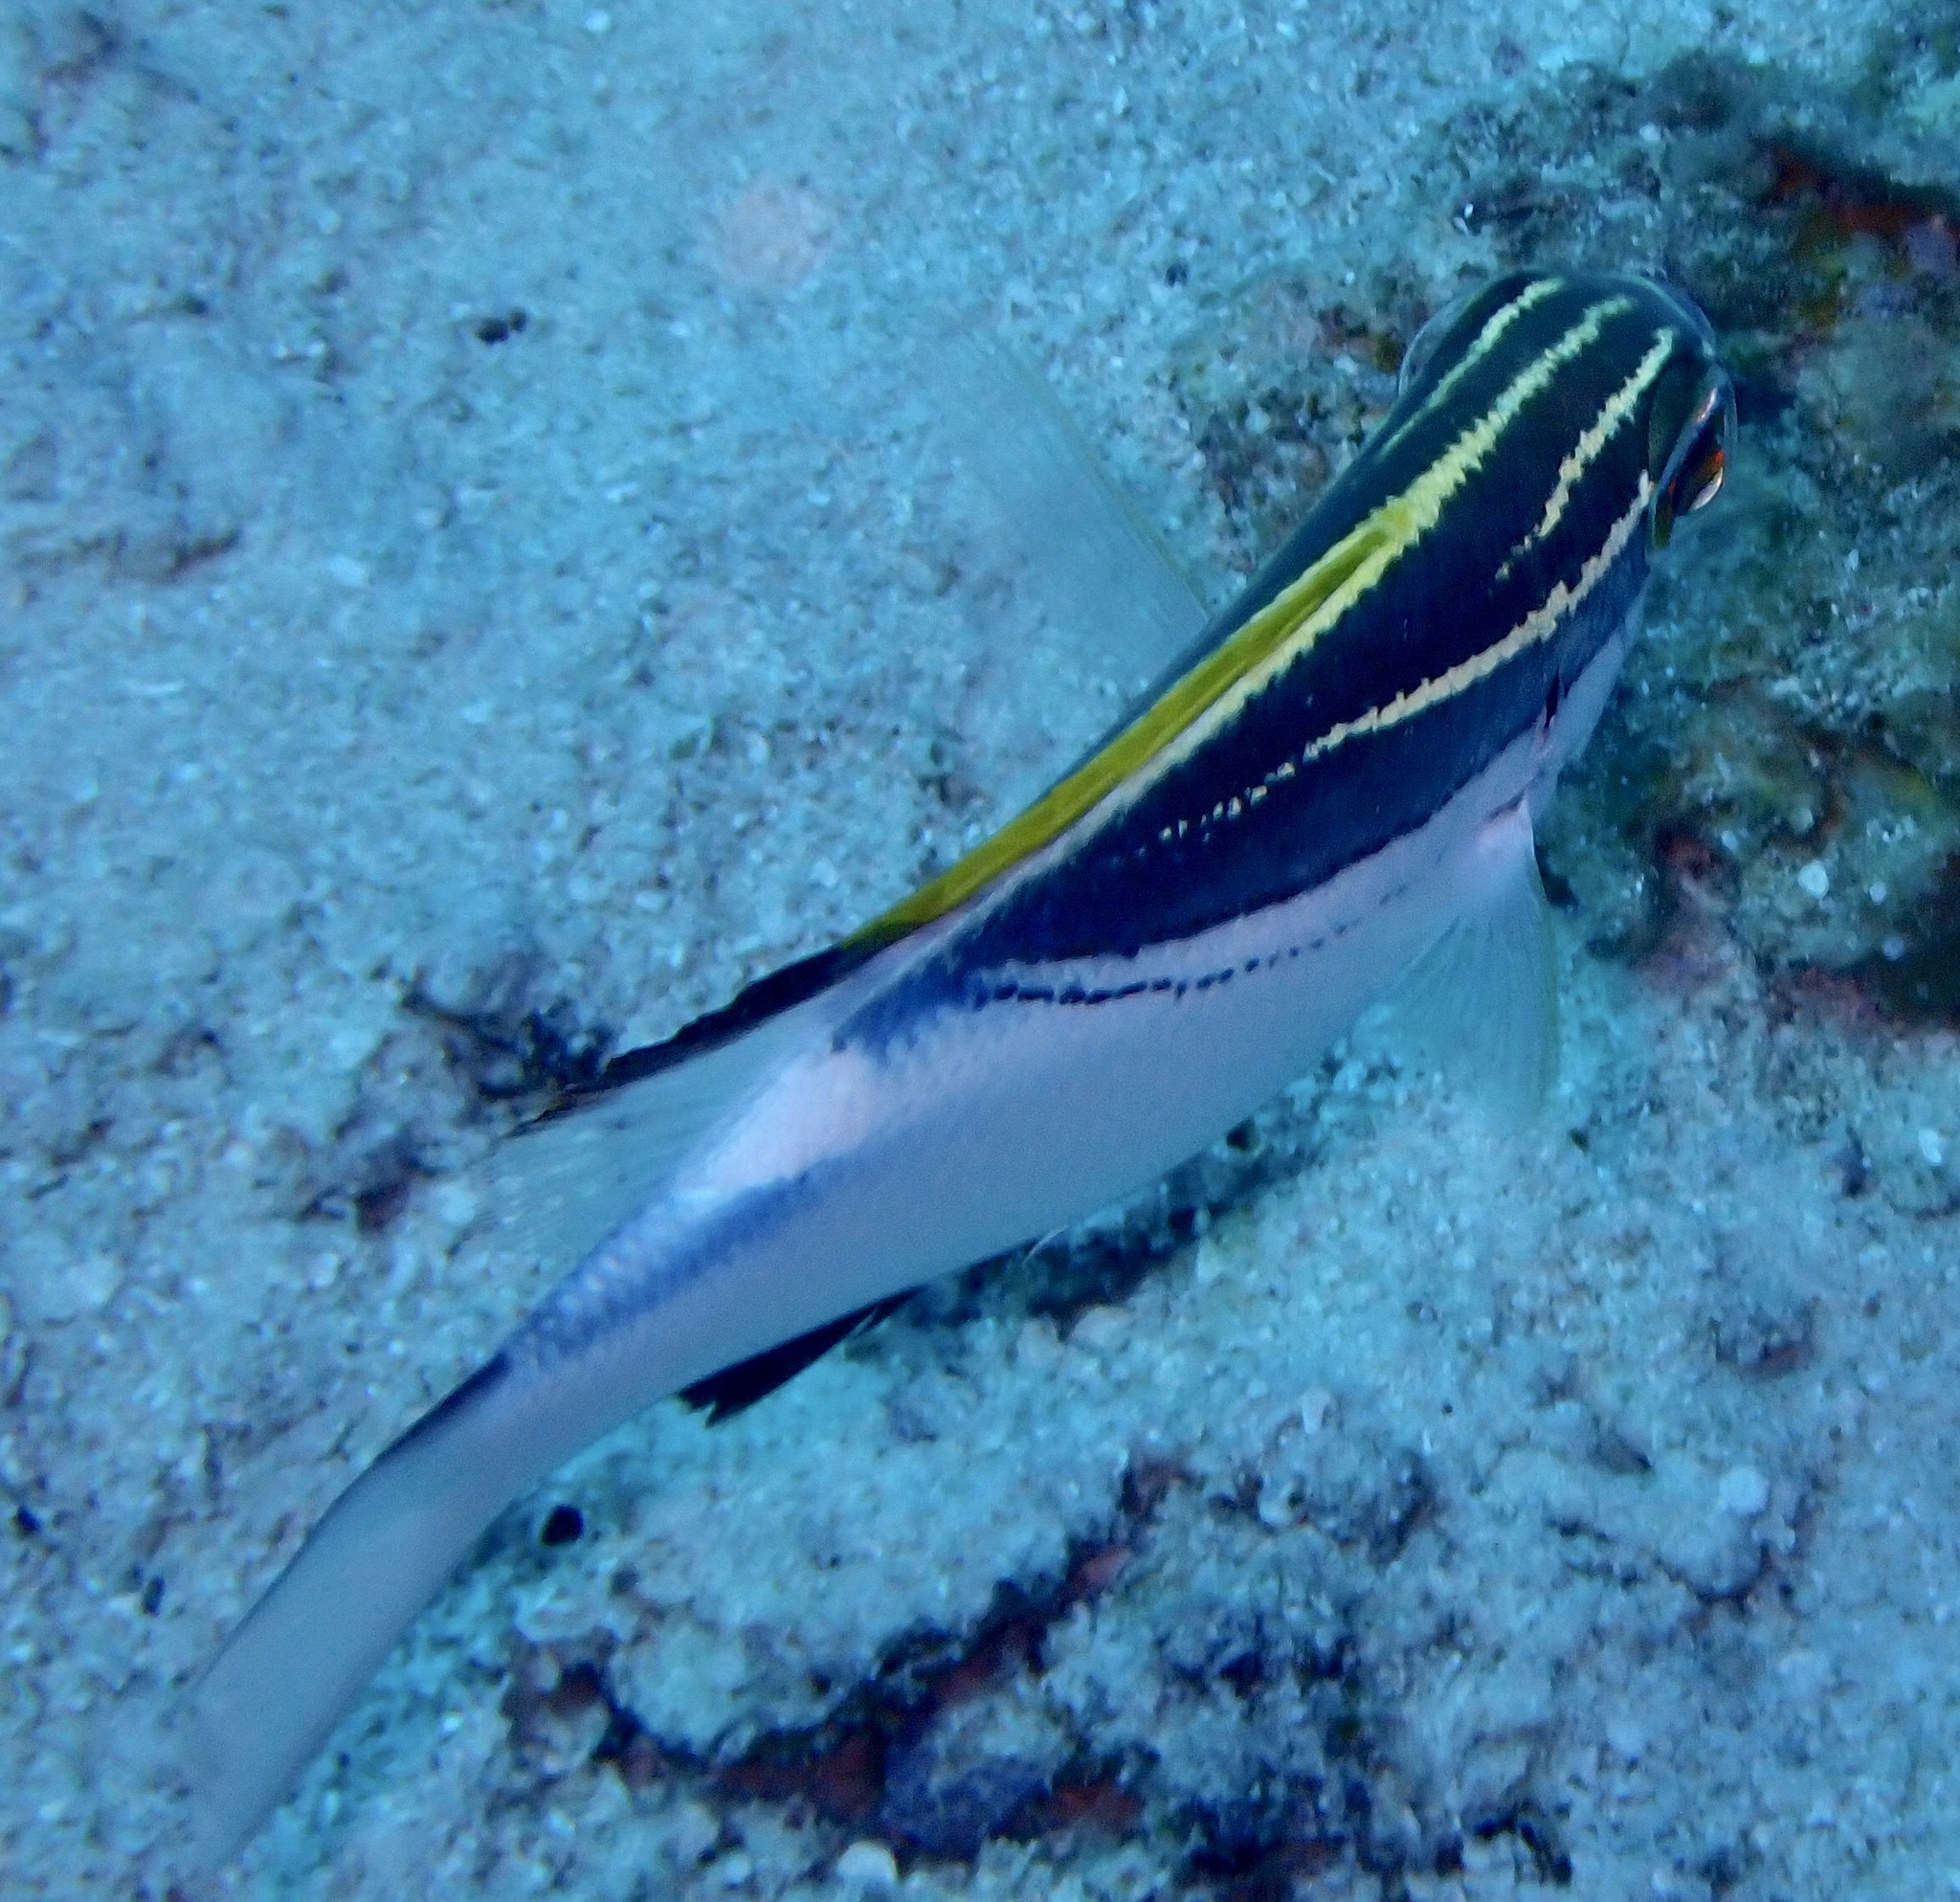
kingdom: Animalia
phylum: Chordata
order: Perciformes
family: Nemipteridae
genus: Scolopsis
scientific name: Scolopsis bilineata
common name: Two-lined monocle bream
